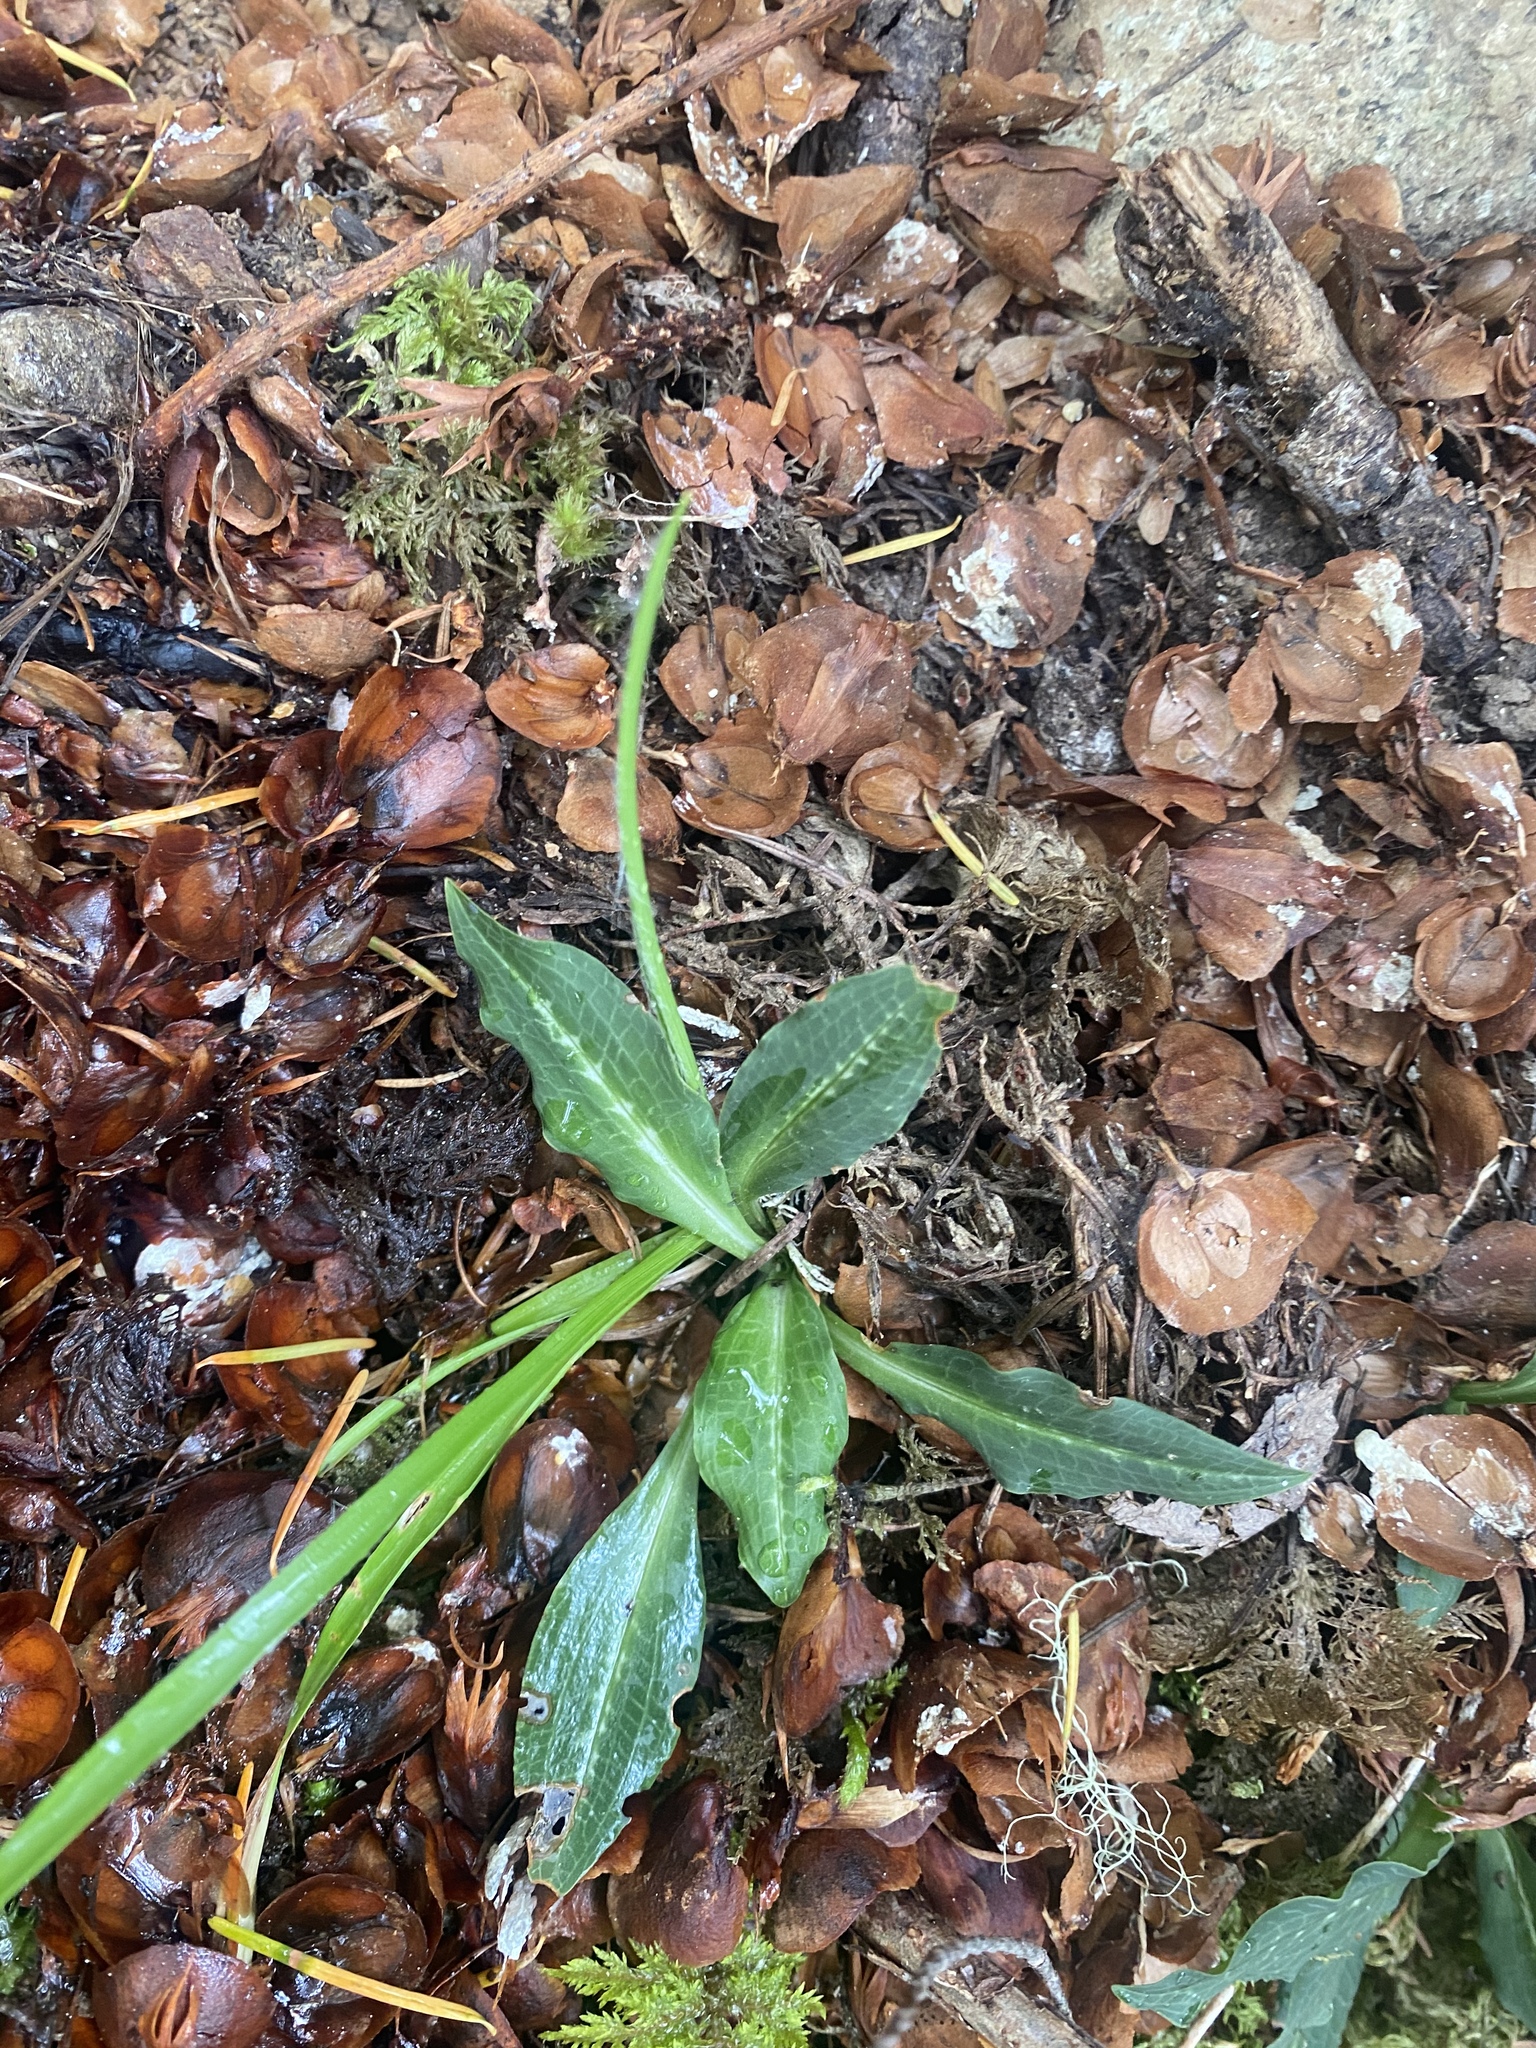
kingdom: Plantae
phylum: Tracheophyta
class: Liliopsida
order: Asparagales
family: Orchidaceae
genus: Goodyera
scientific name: Goodyera oblongifolia
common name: Giant rattlesnake-plantain
